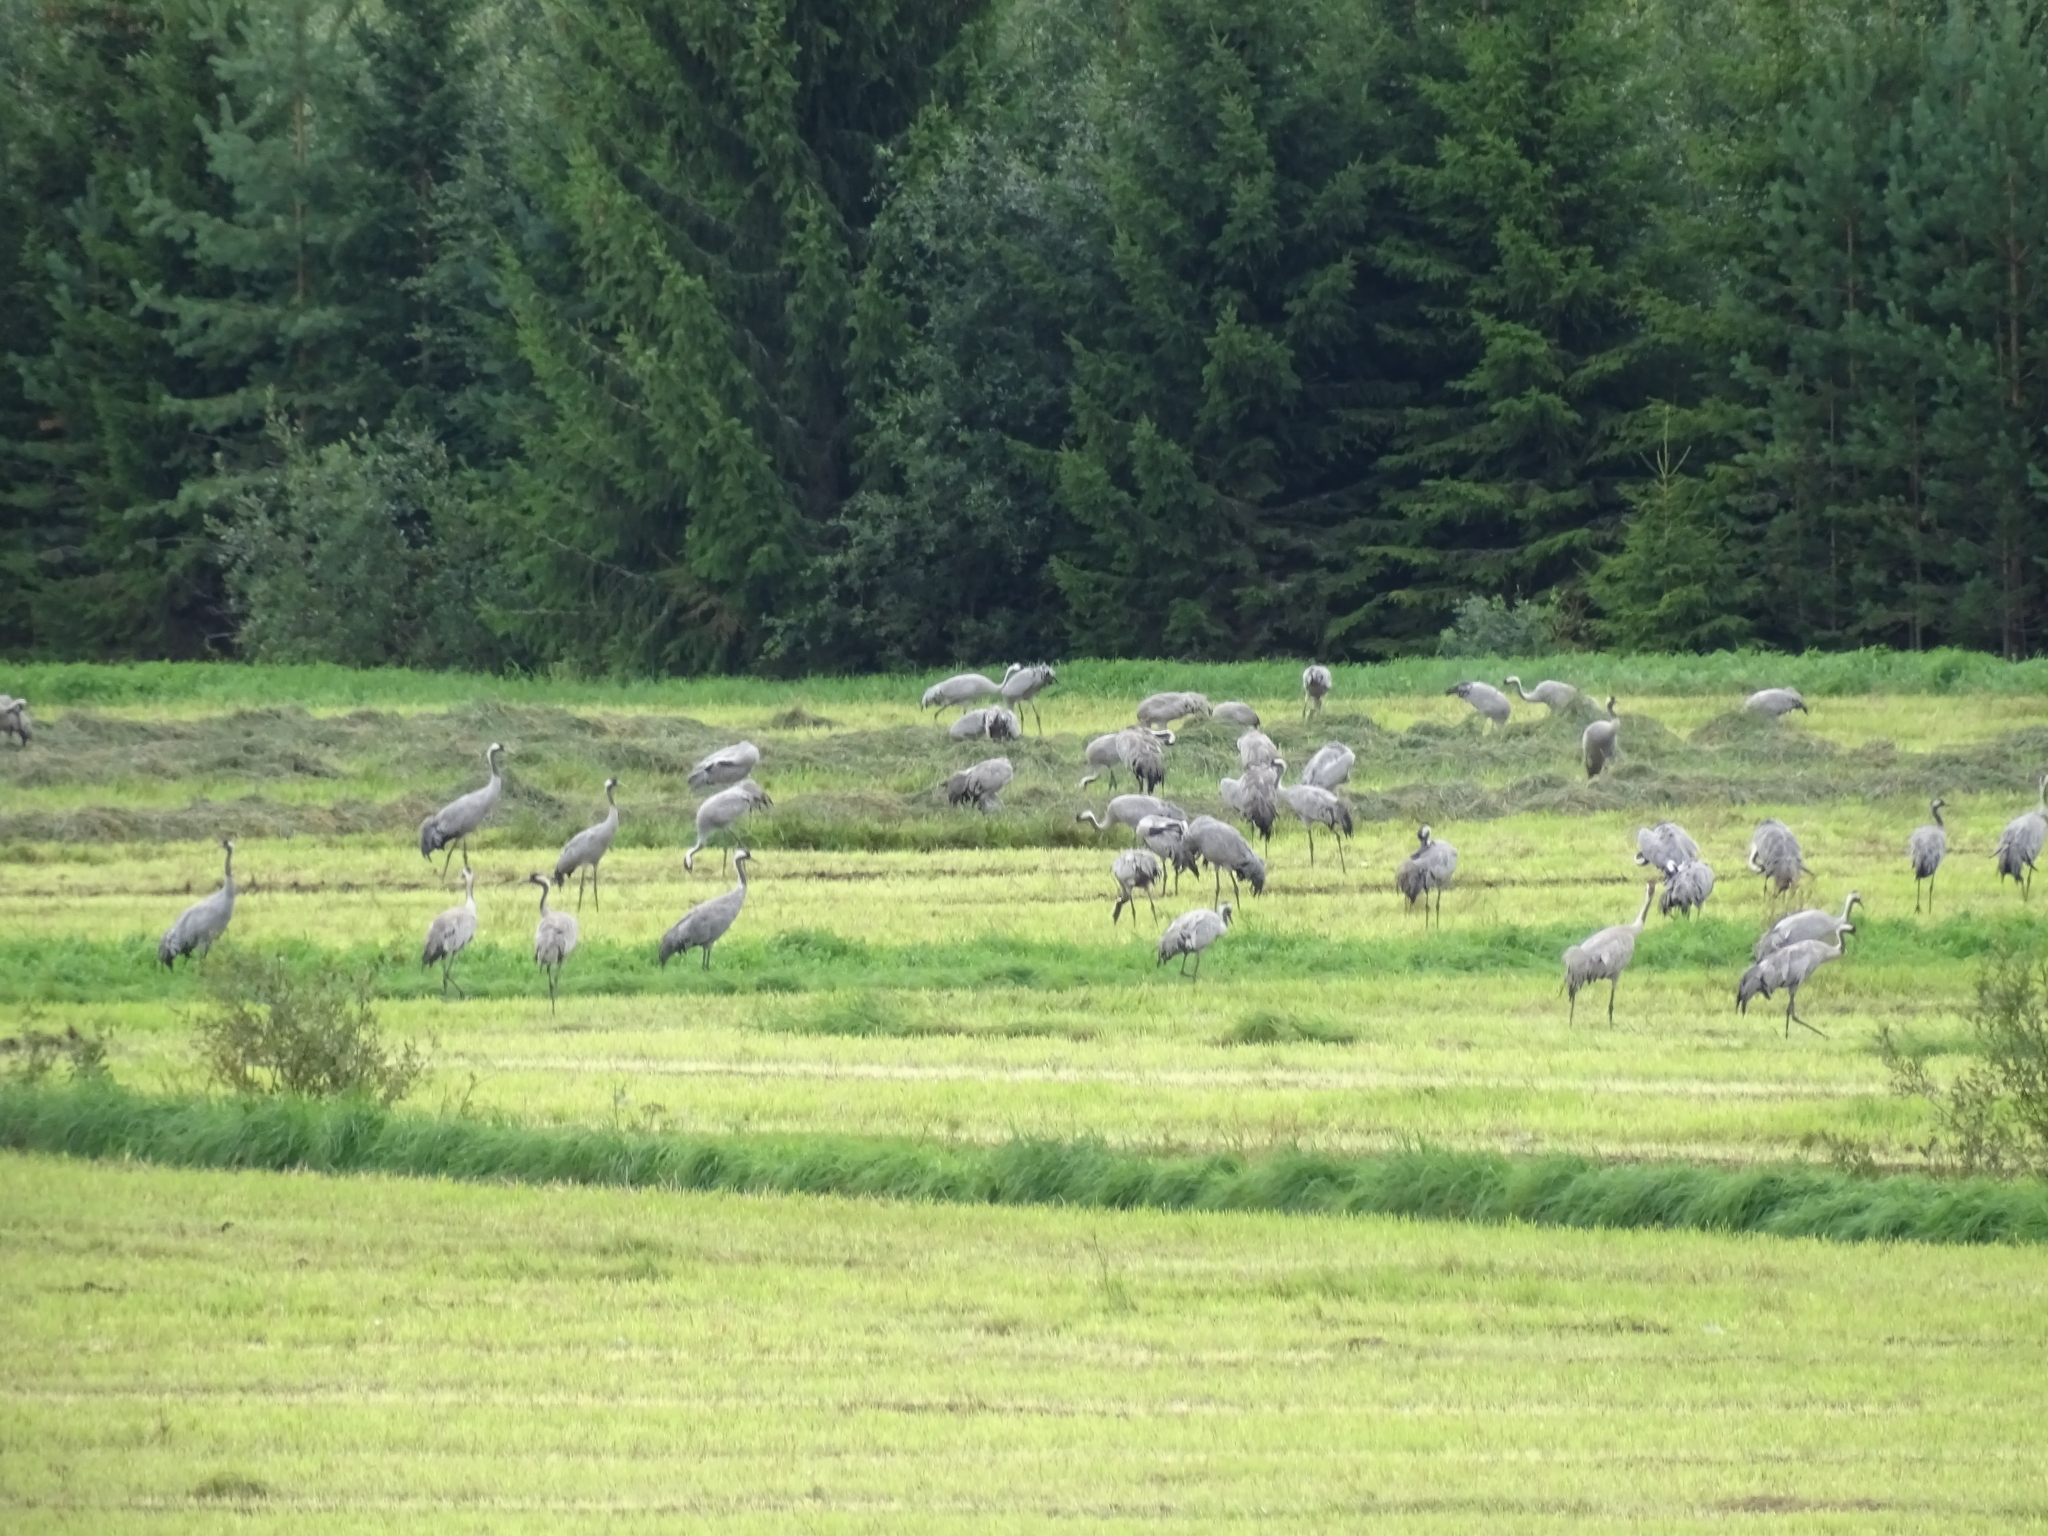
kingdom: Animalia
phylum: Chordata
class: Aves
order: Gruiformes
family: Gruidae
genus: Grus
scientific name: Grus grus
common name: Common crane
